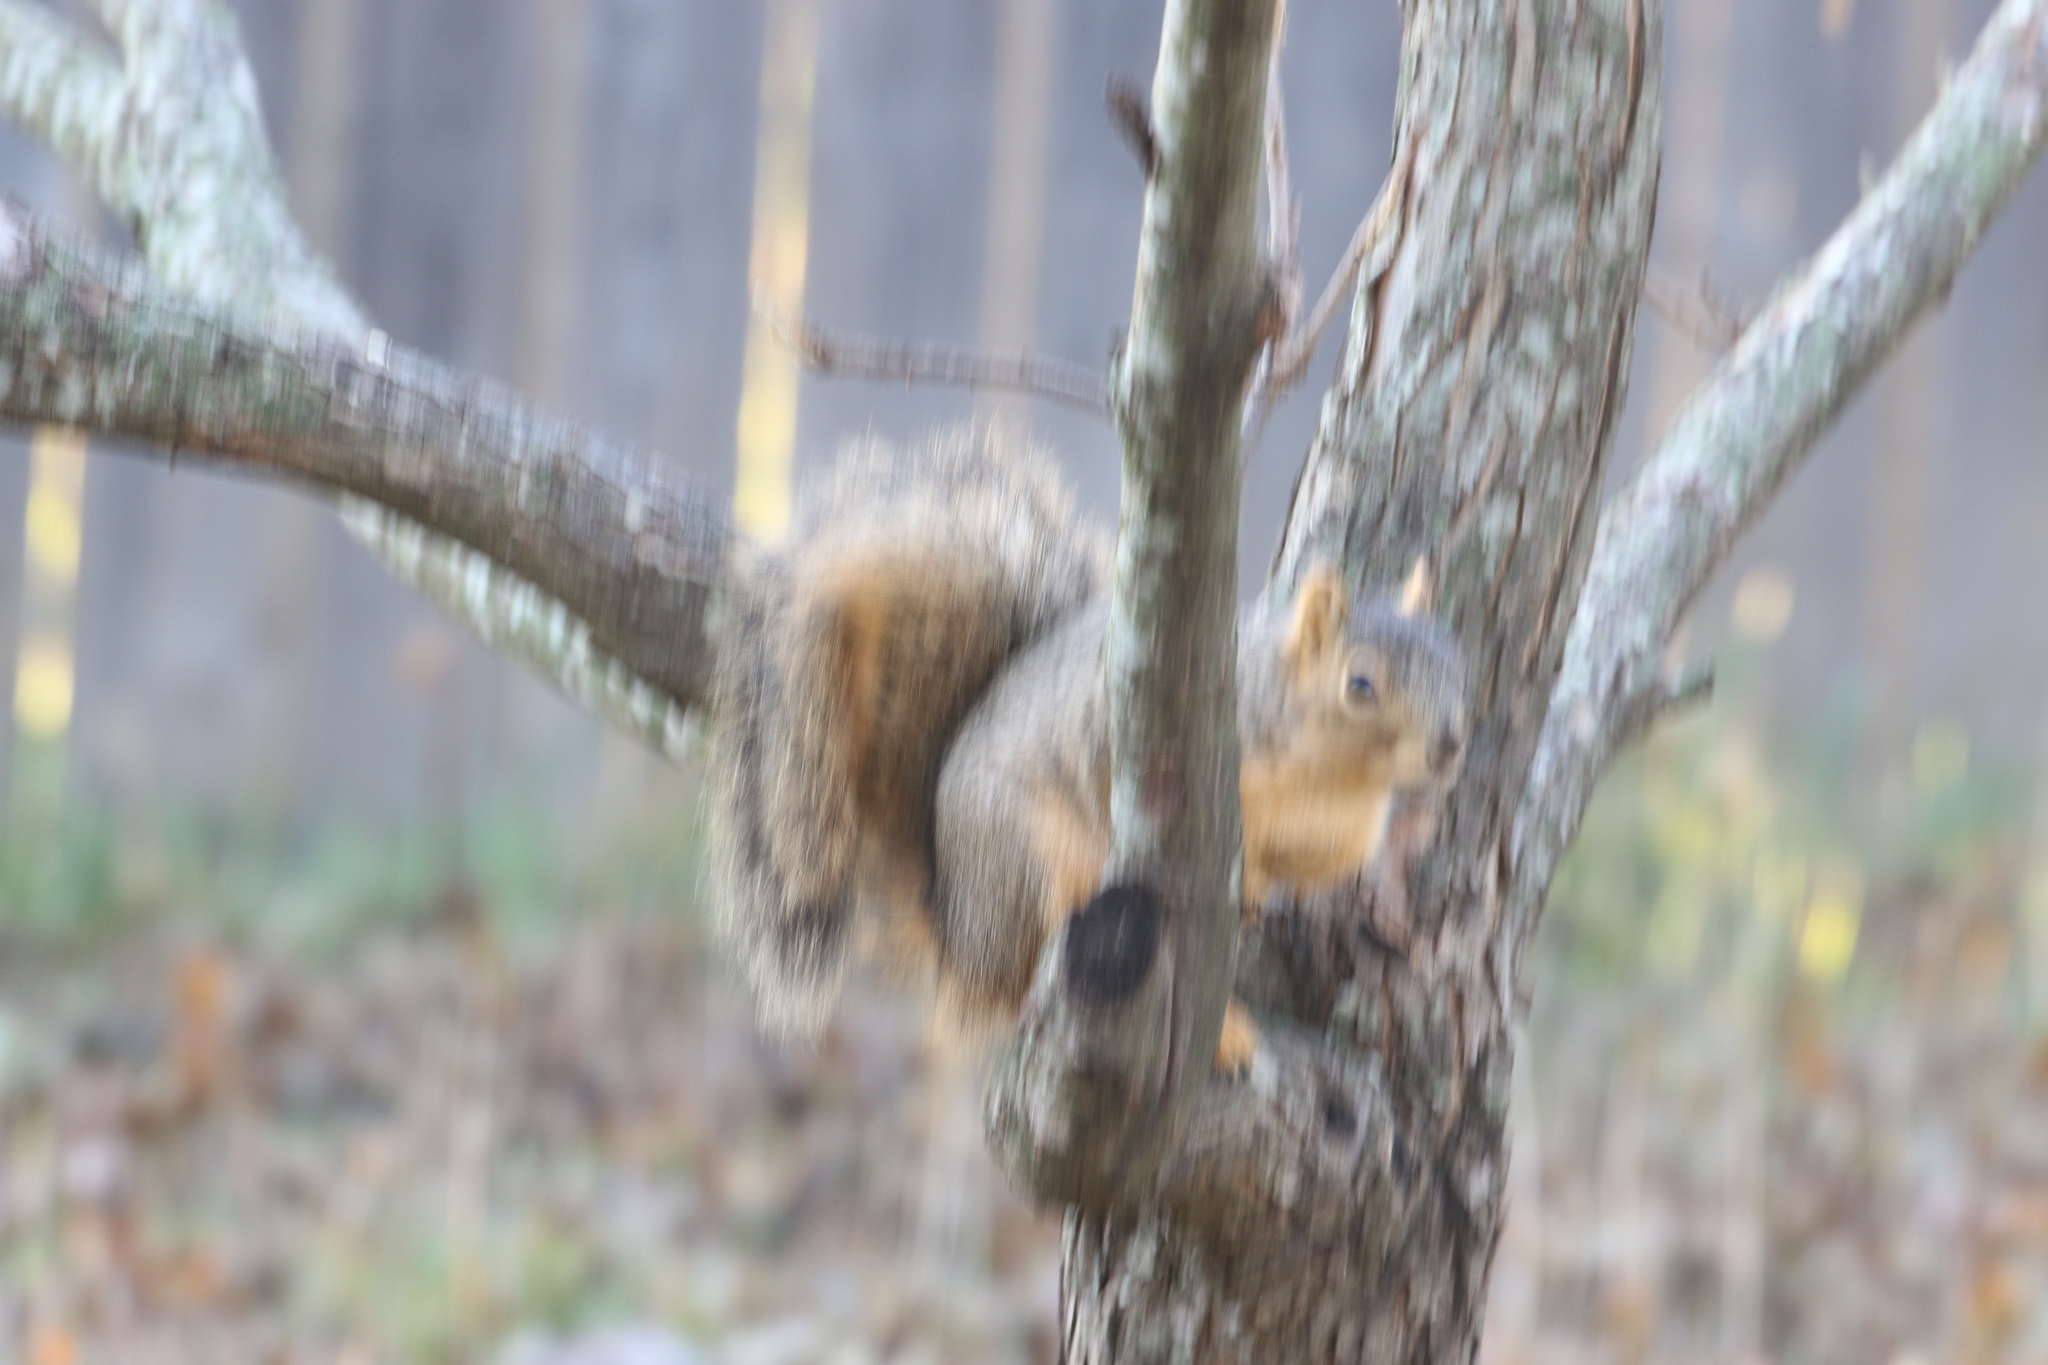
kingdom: Animalia
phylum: Chordata
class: Mammalia
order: Rodentia
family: Sciuridae
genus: Sciurus
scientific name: Sciurus niger
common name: Fox squirrel
